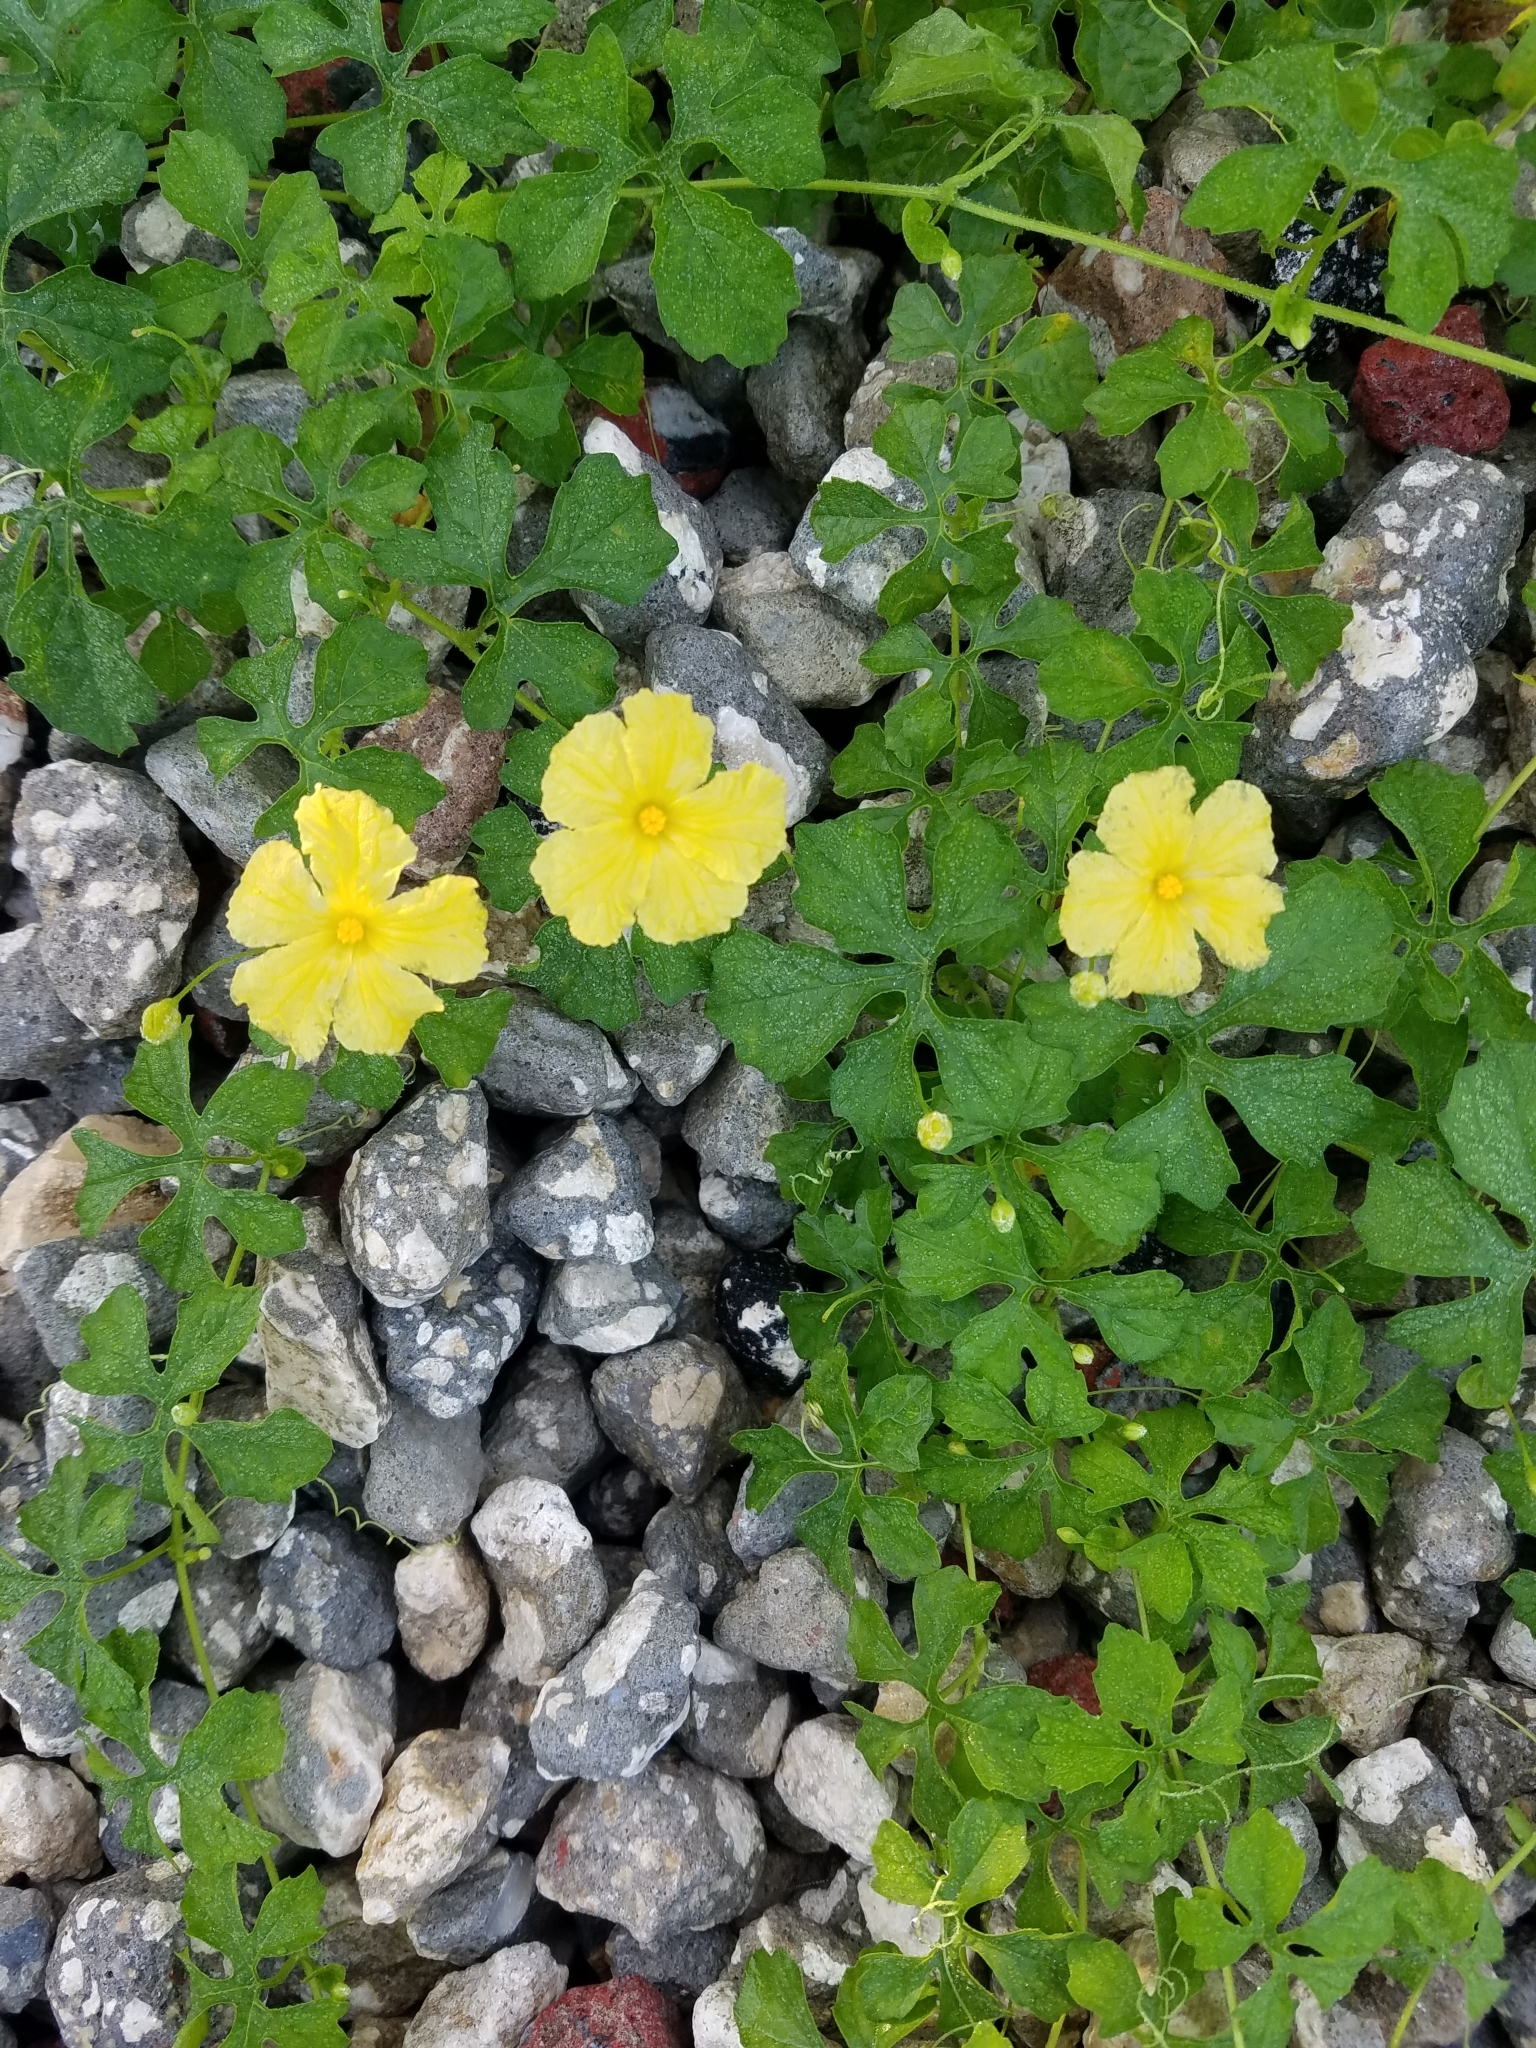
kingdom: Plantae
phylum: Tracheophyta
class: Magnoliopsida
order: Cucurbitales
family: Cucurbitaceae
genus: Momordica
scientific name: Momordica charantia
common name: Balsampear
